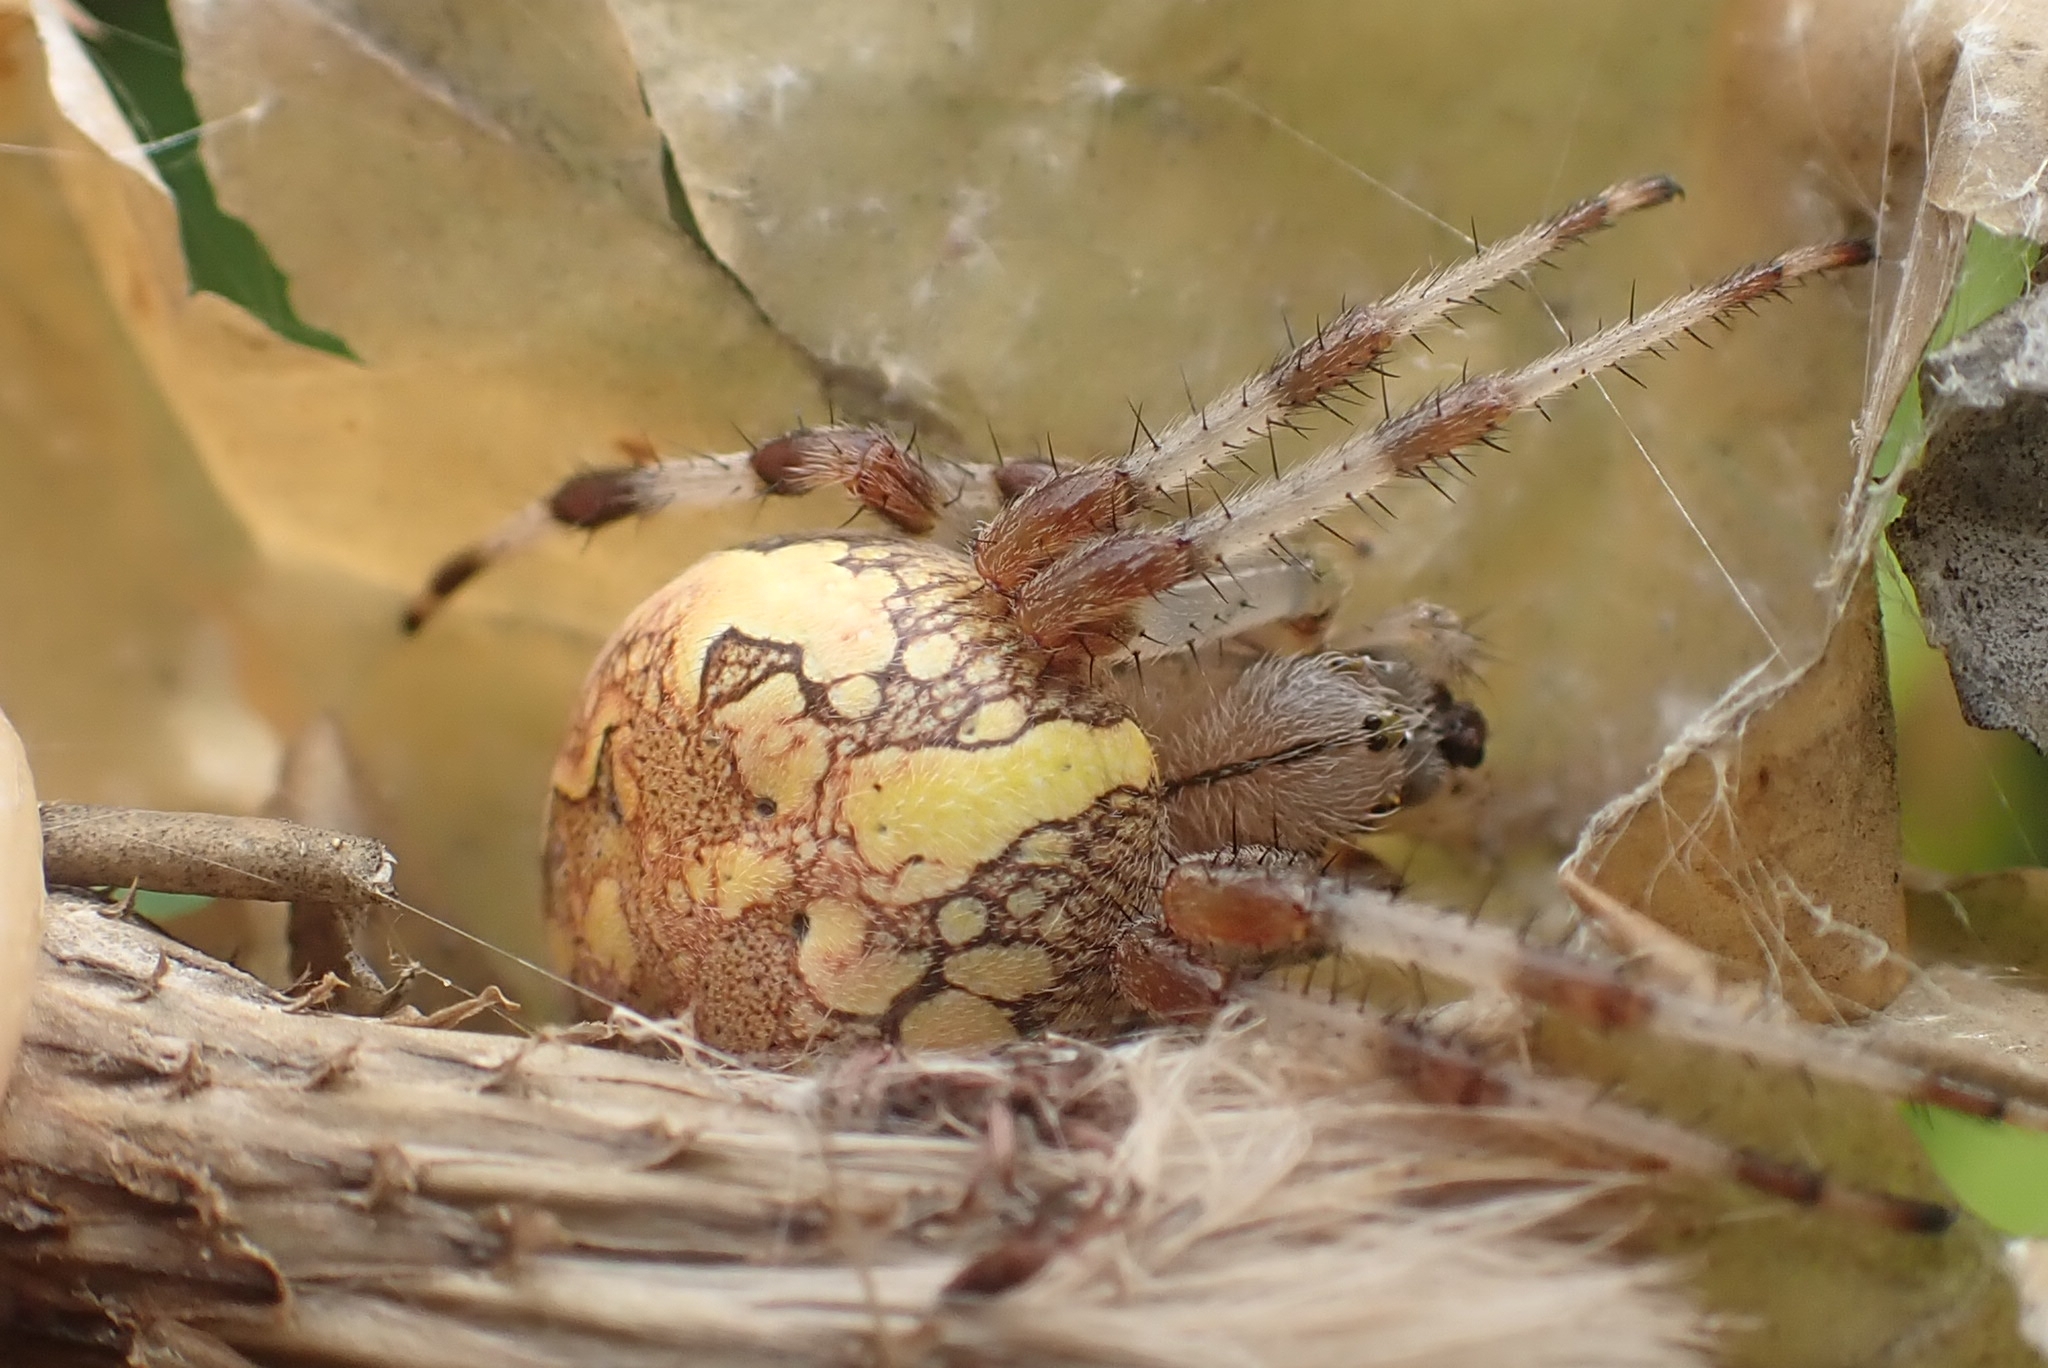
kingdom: Animalia
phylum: Arthropoda
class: Arachnida
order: Araneae
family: Araneidae
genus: Araneus
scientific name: Araneus marmoreus
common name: Marbled orbweaver
